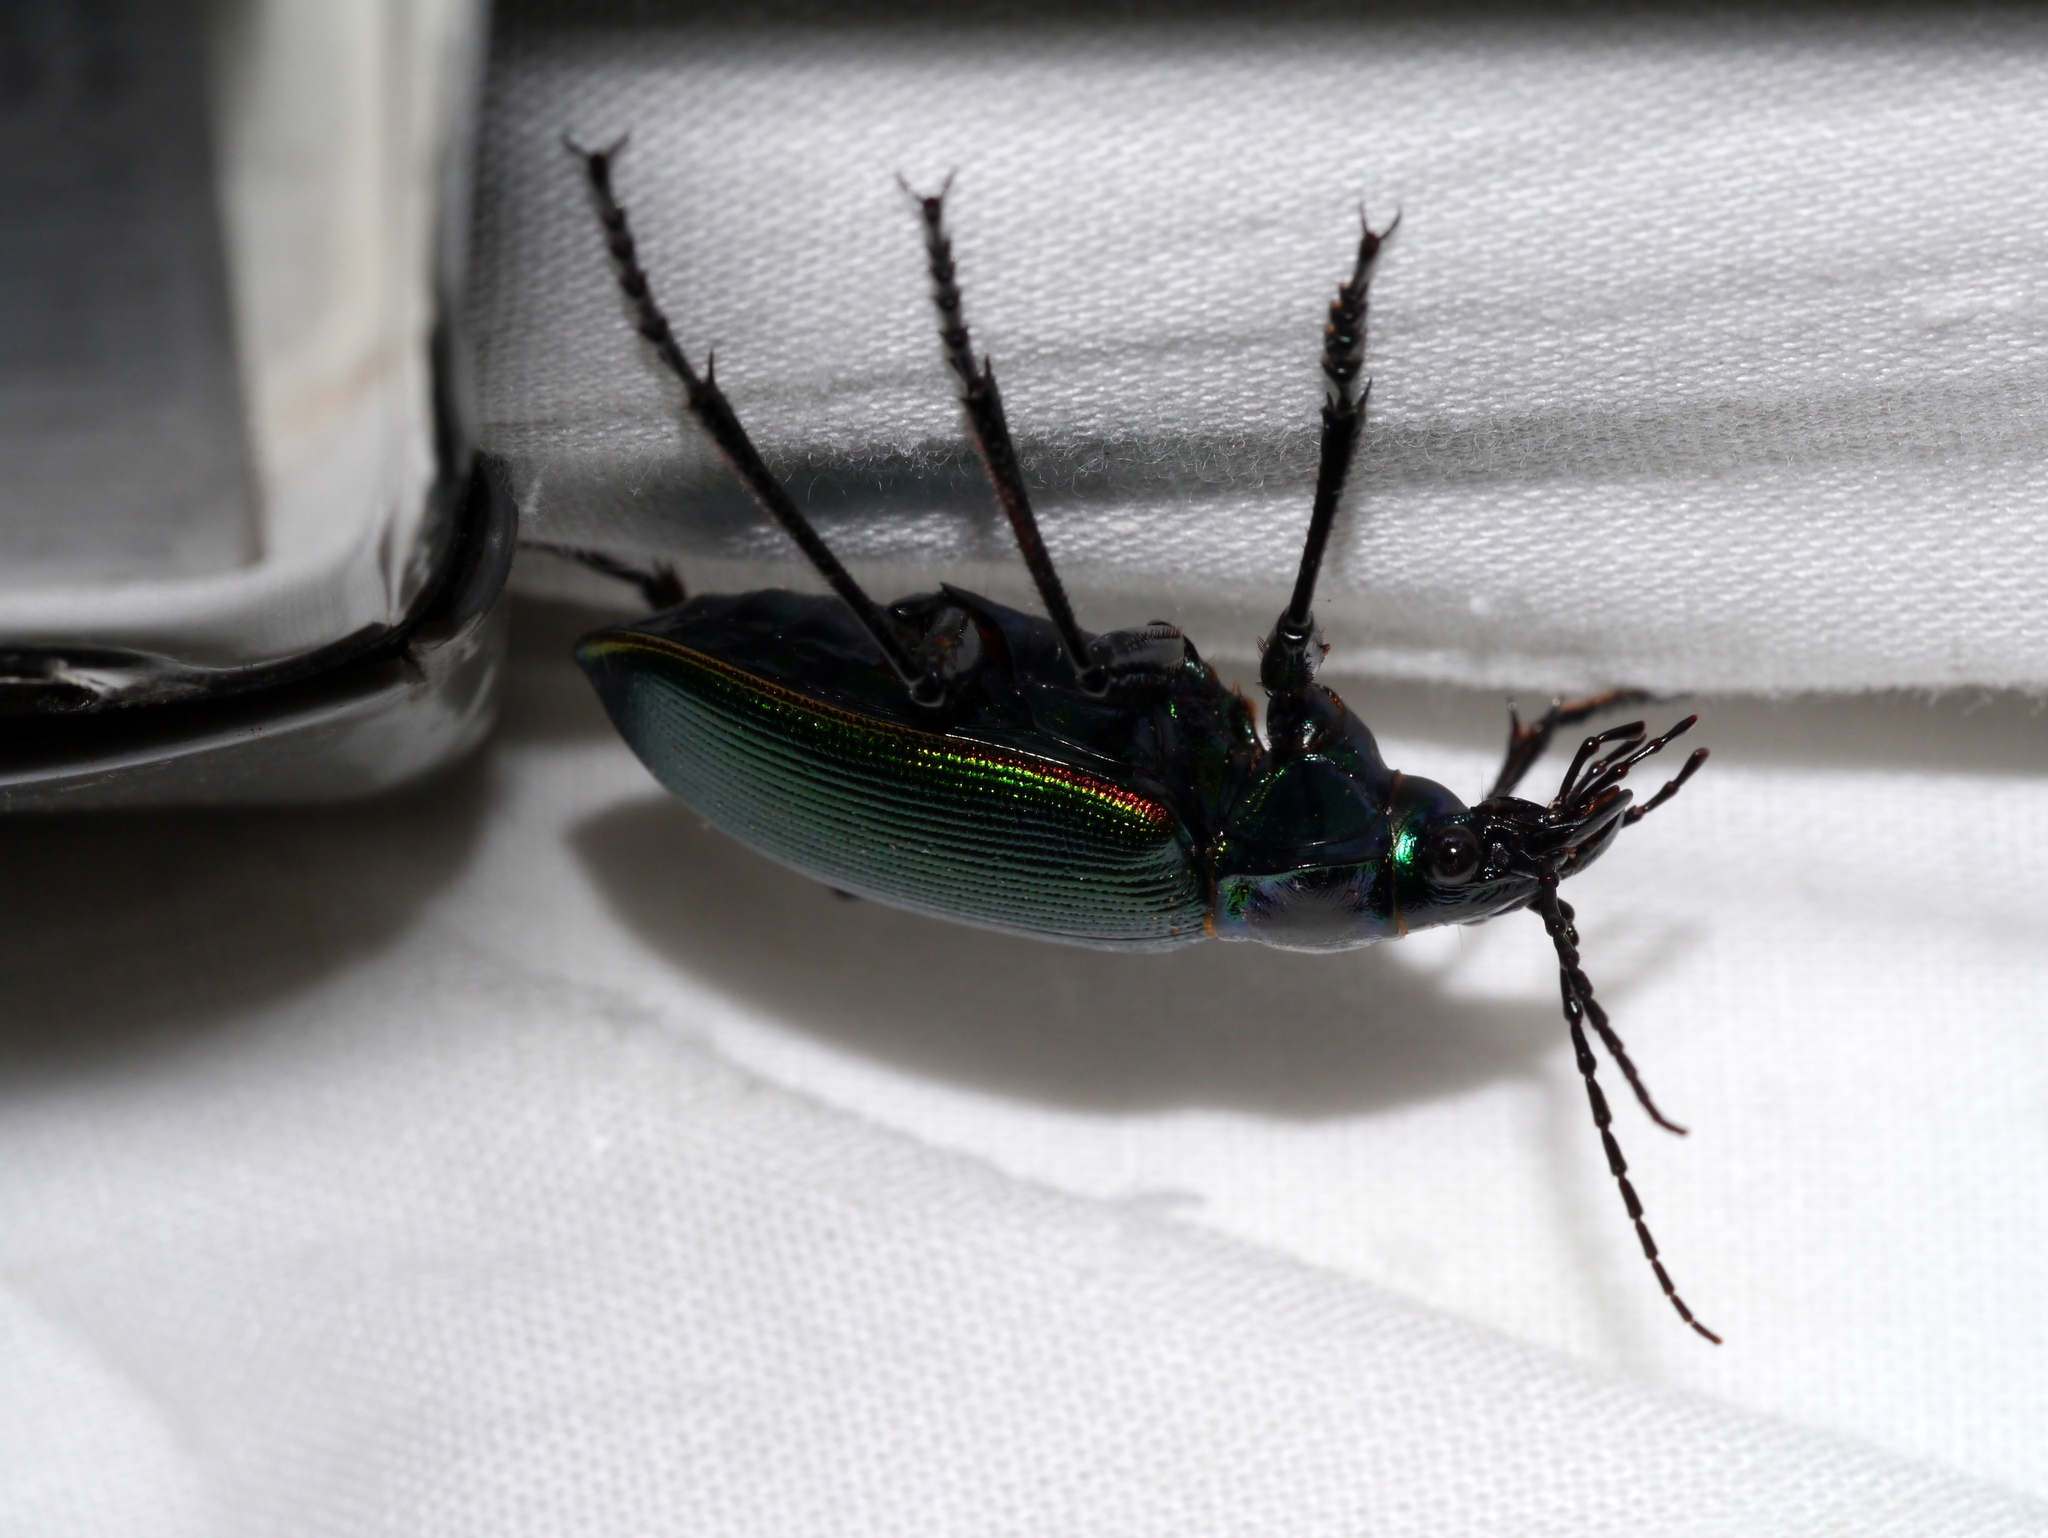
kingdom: Animalia
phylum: Arthropoda
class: Insecta
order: Coleoptera
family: Carabidae
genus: Calosoma
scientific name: Calosoma scrutator
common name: Fiery searcher beetle
